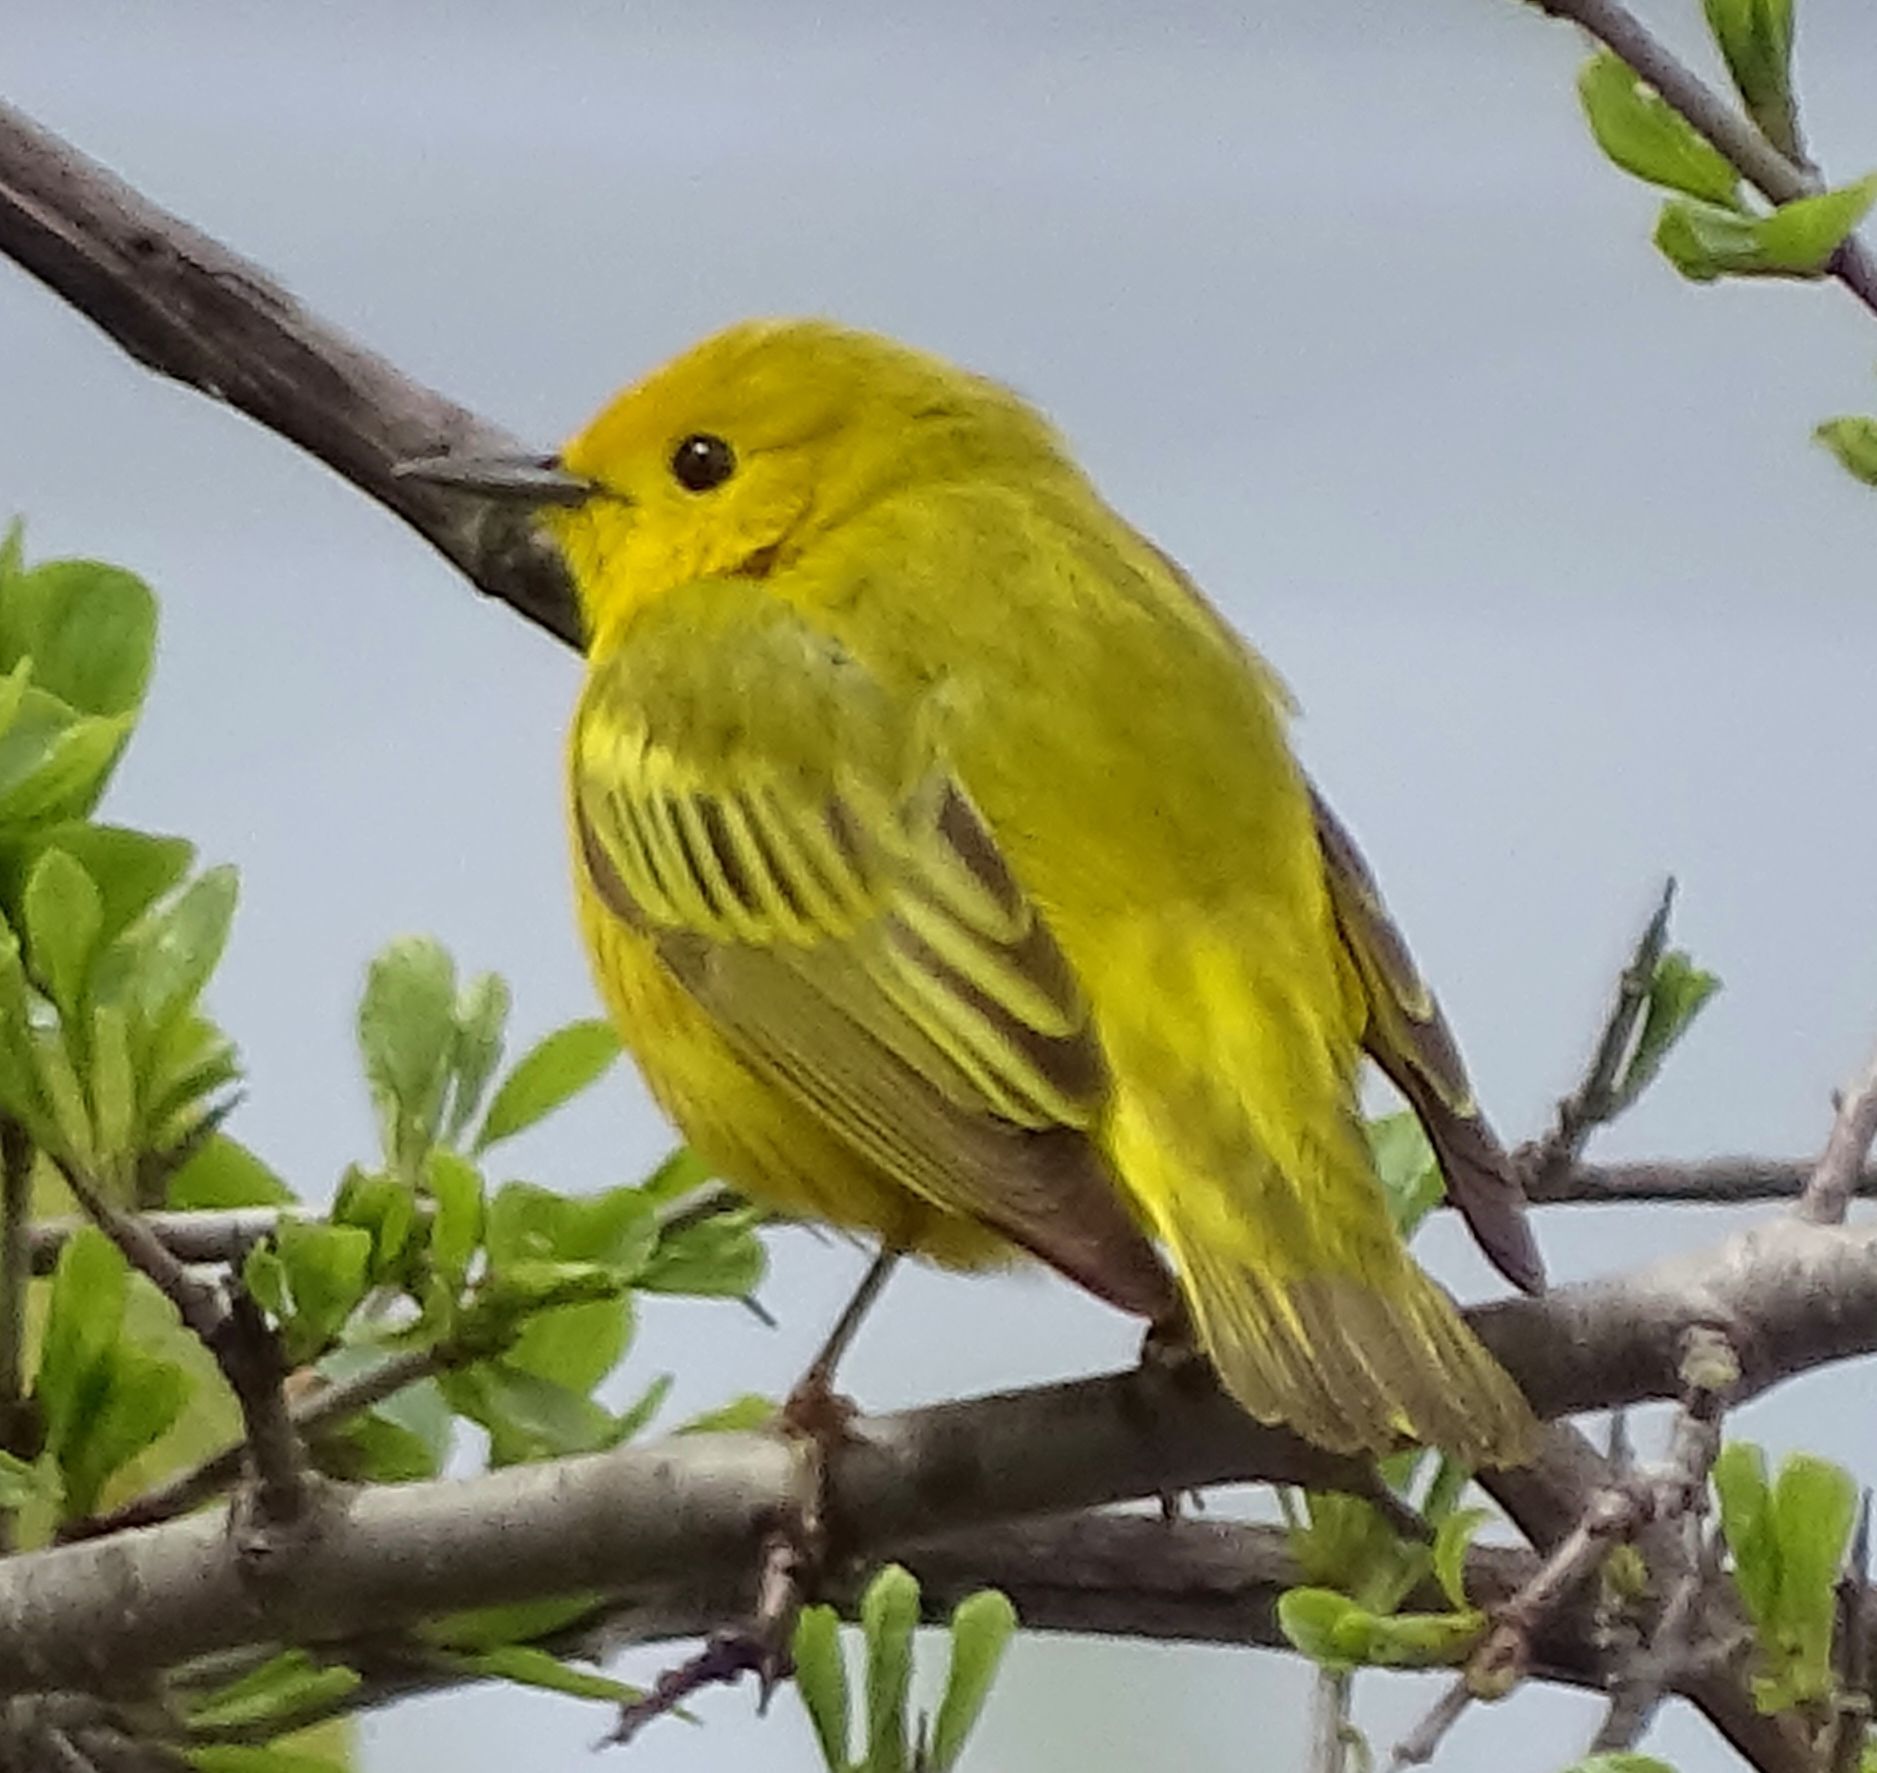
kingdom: Animalia
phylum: Chordata
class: Aves
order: Passeriformes
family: Parulidae
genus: Setophaga
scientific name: Setophaga petechia
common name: Yellow warbler
